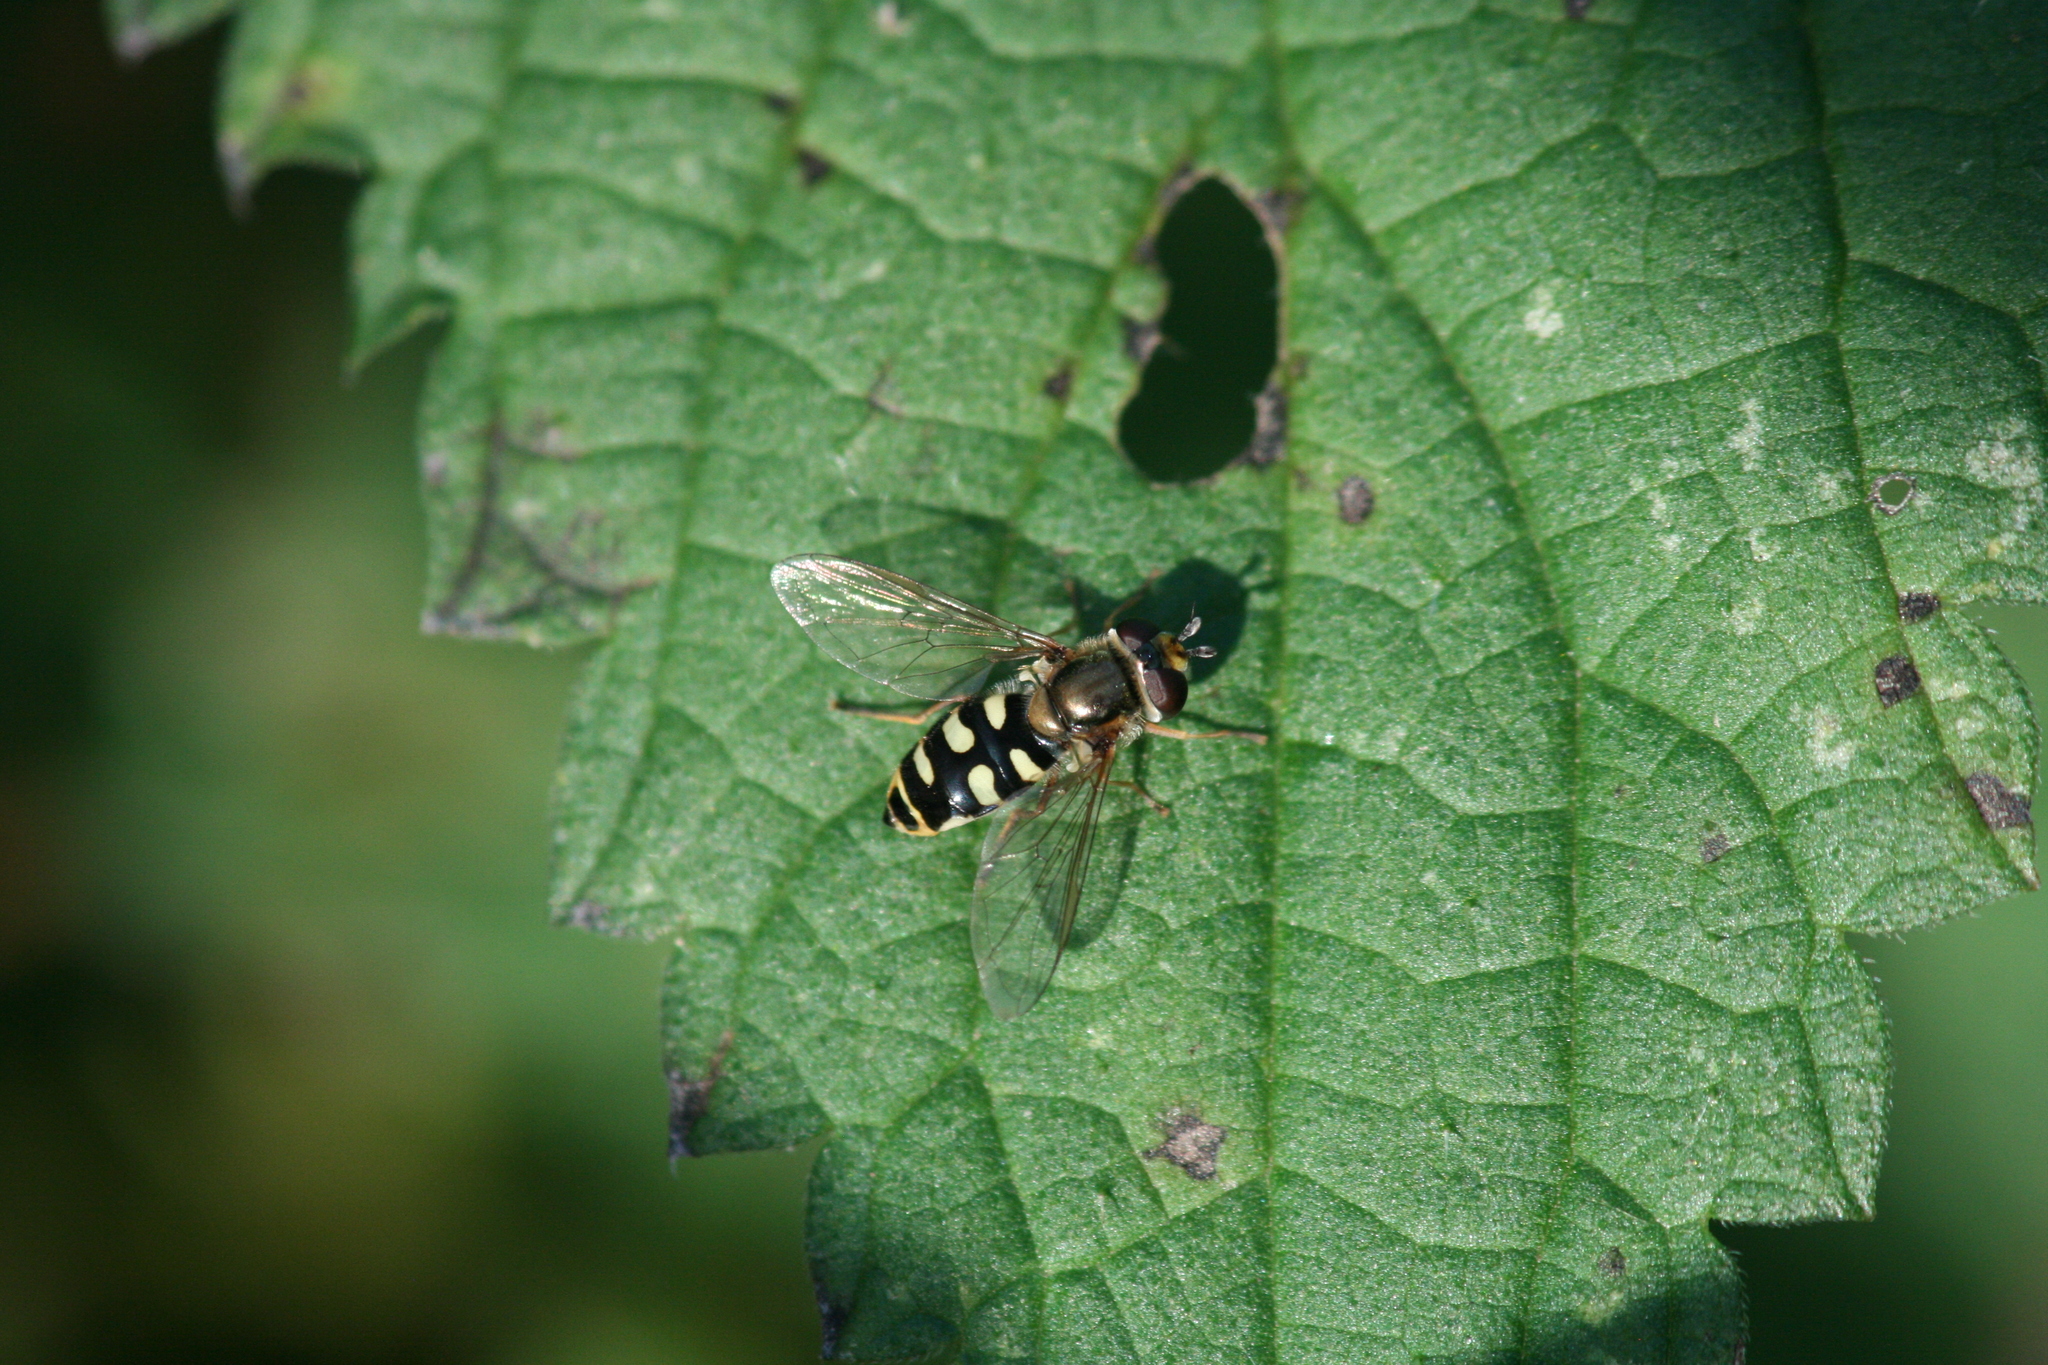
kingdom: Animalia
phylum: Arthropoda
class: Insecta
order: Diptera
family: Syrphidae
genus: Eupeodes
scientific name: Eupeodes corollae
